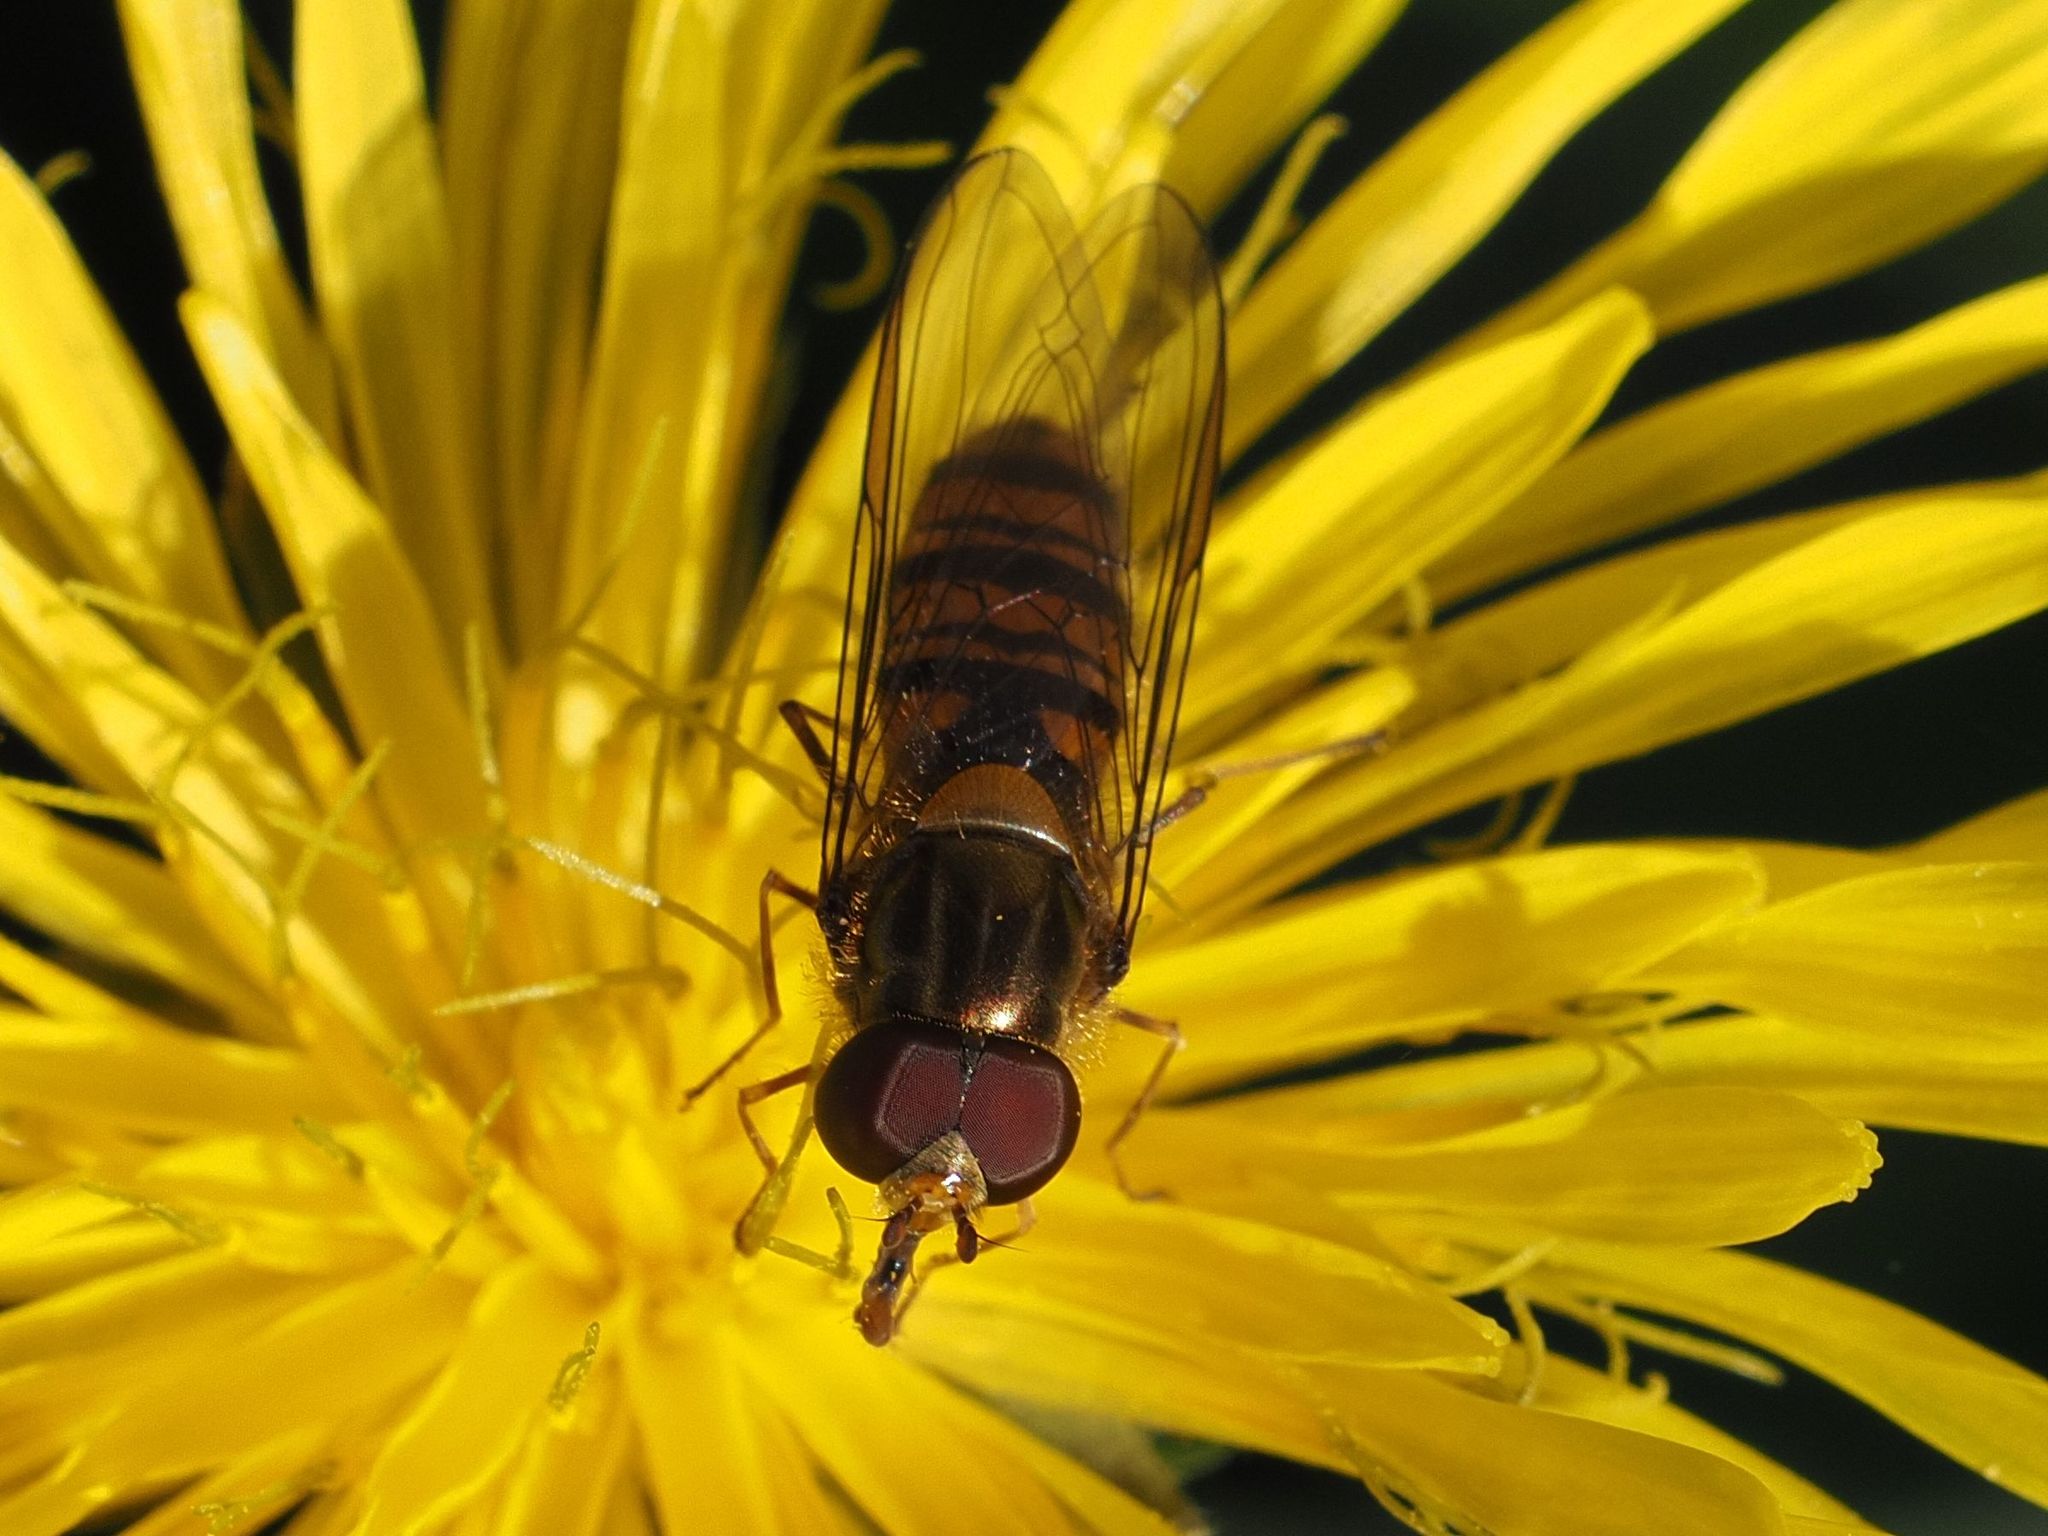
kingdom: Animalia
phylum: Arthropoda
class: Insecta
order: Diptera
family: Syrphidae
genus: Episyrphus
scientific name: Episyrphus balteatus
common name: Marmalade hoverfly
